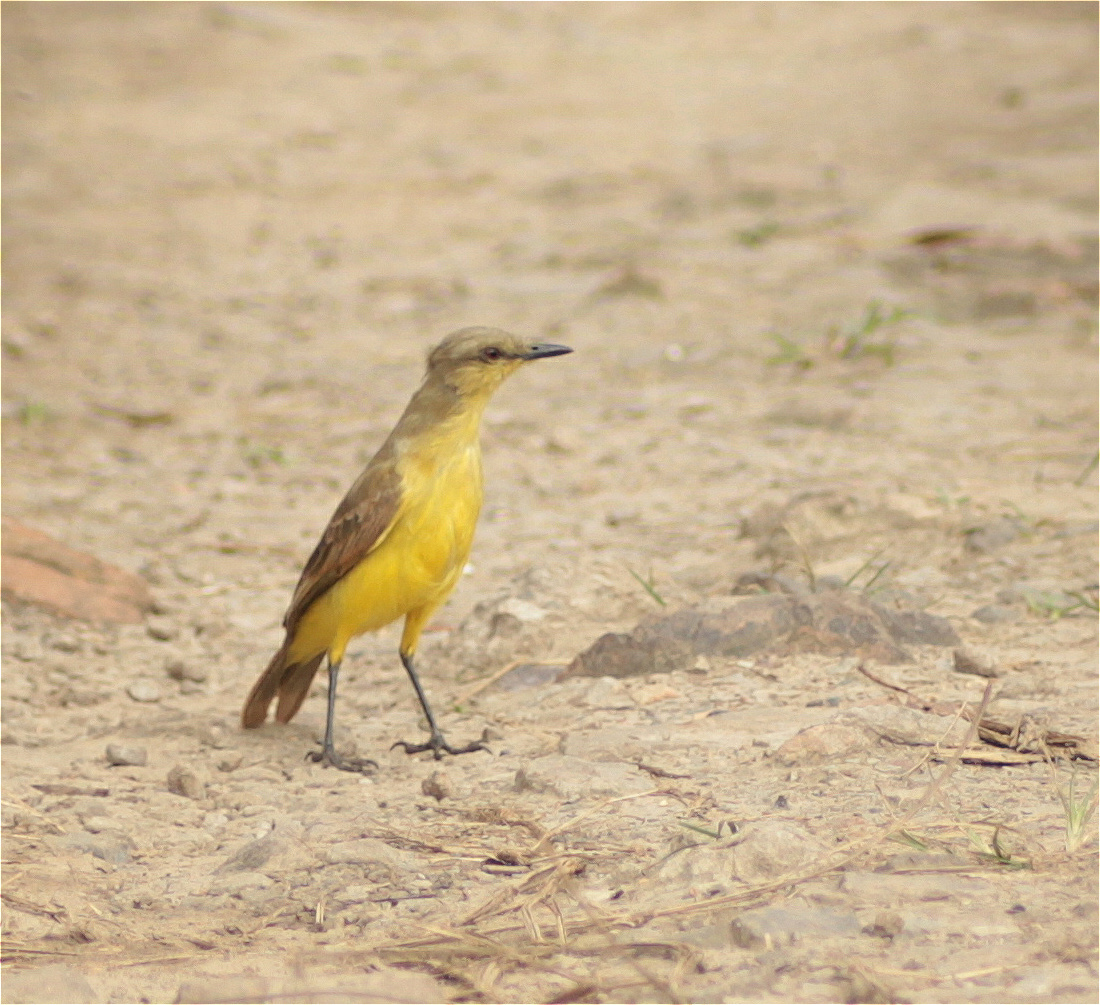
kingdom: Animalia
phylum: Chordata
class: Aves
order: Passeriformes
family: Tyrannidae
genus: Machetornis
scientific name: Machetornis rixosa
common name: Cattle tyrant
